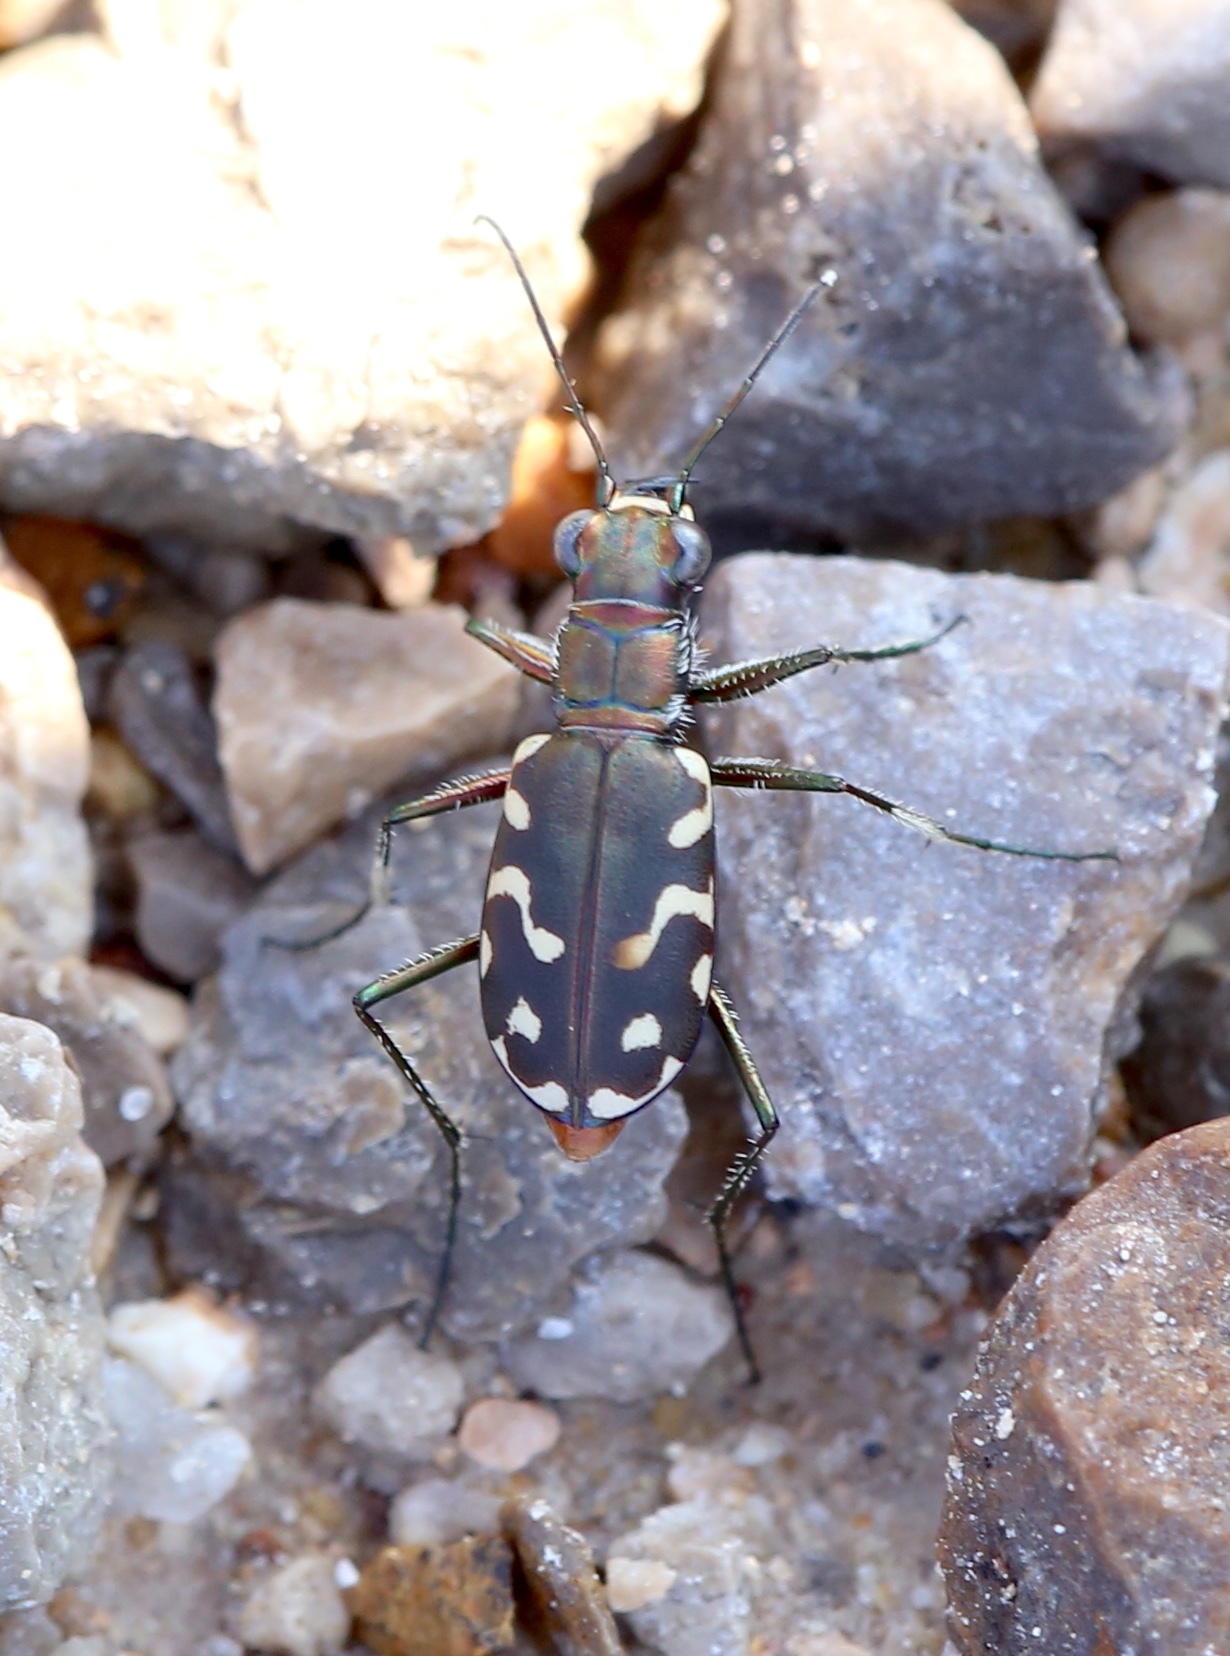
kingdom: Animalia
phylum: Arthropoda
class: Insecta
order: Coleoptera
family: Carabidae
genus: Cicindela
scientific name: Cicindela hemorrhagica
